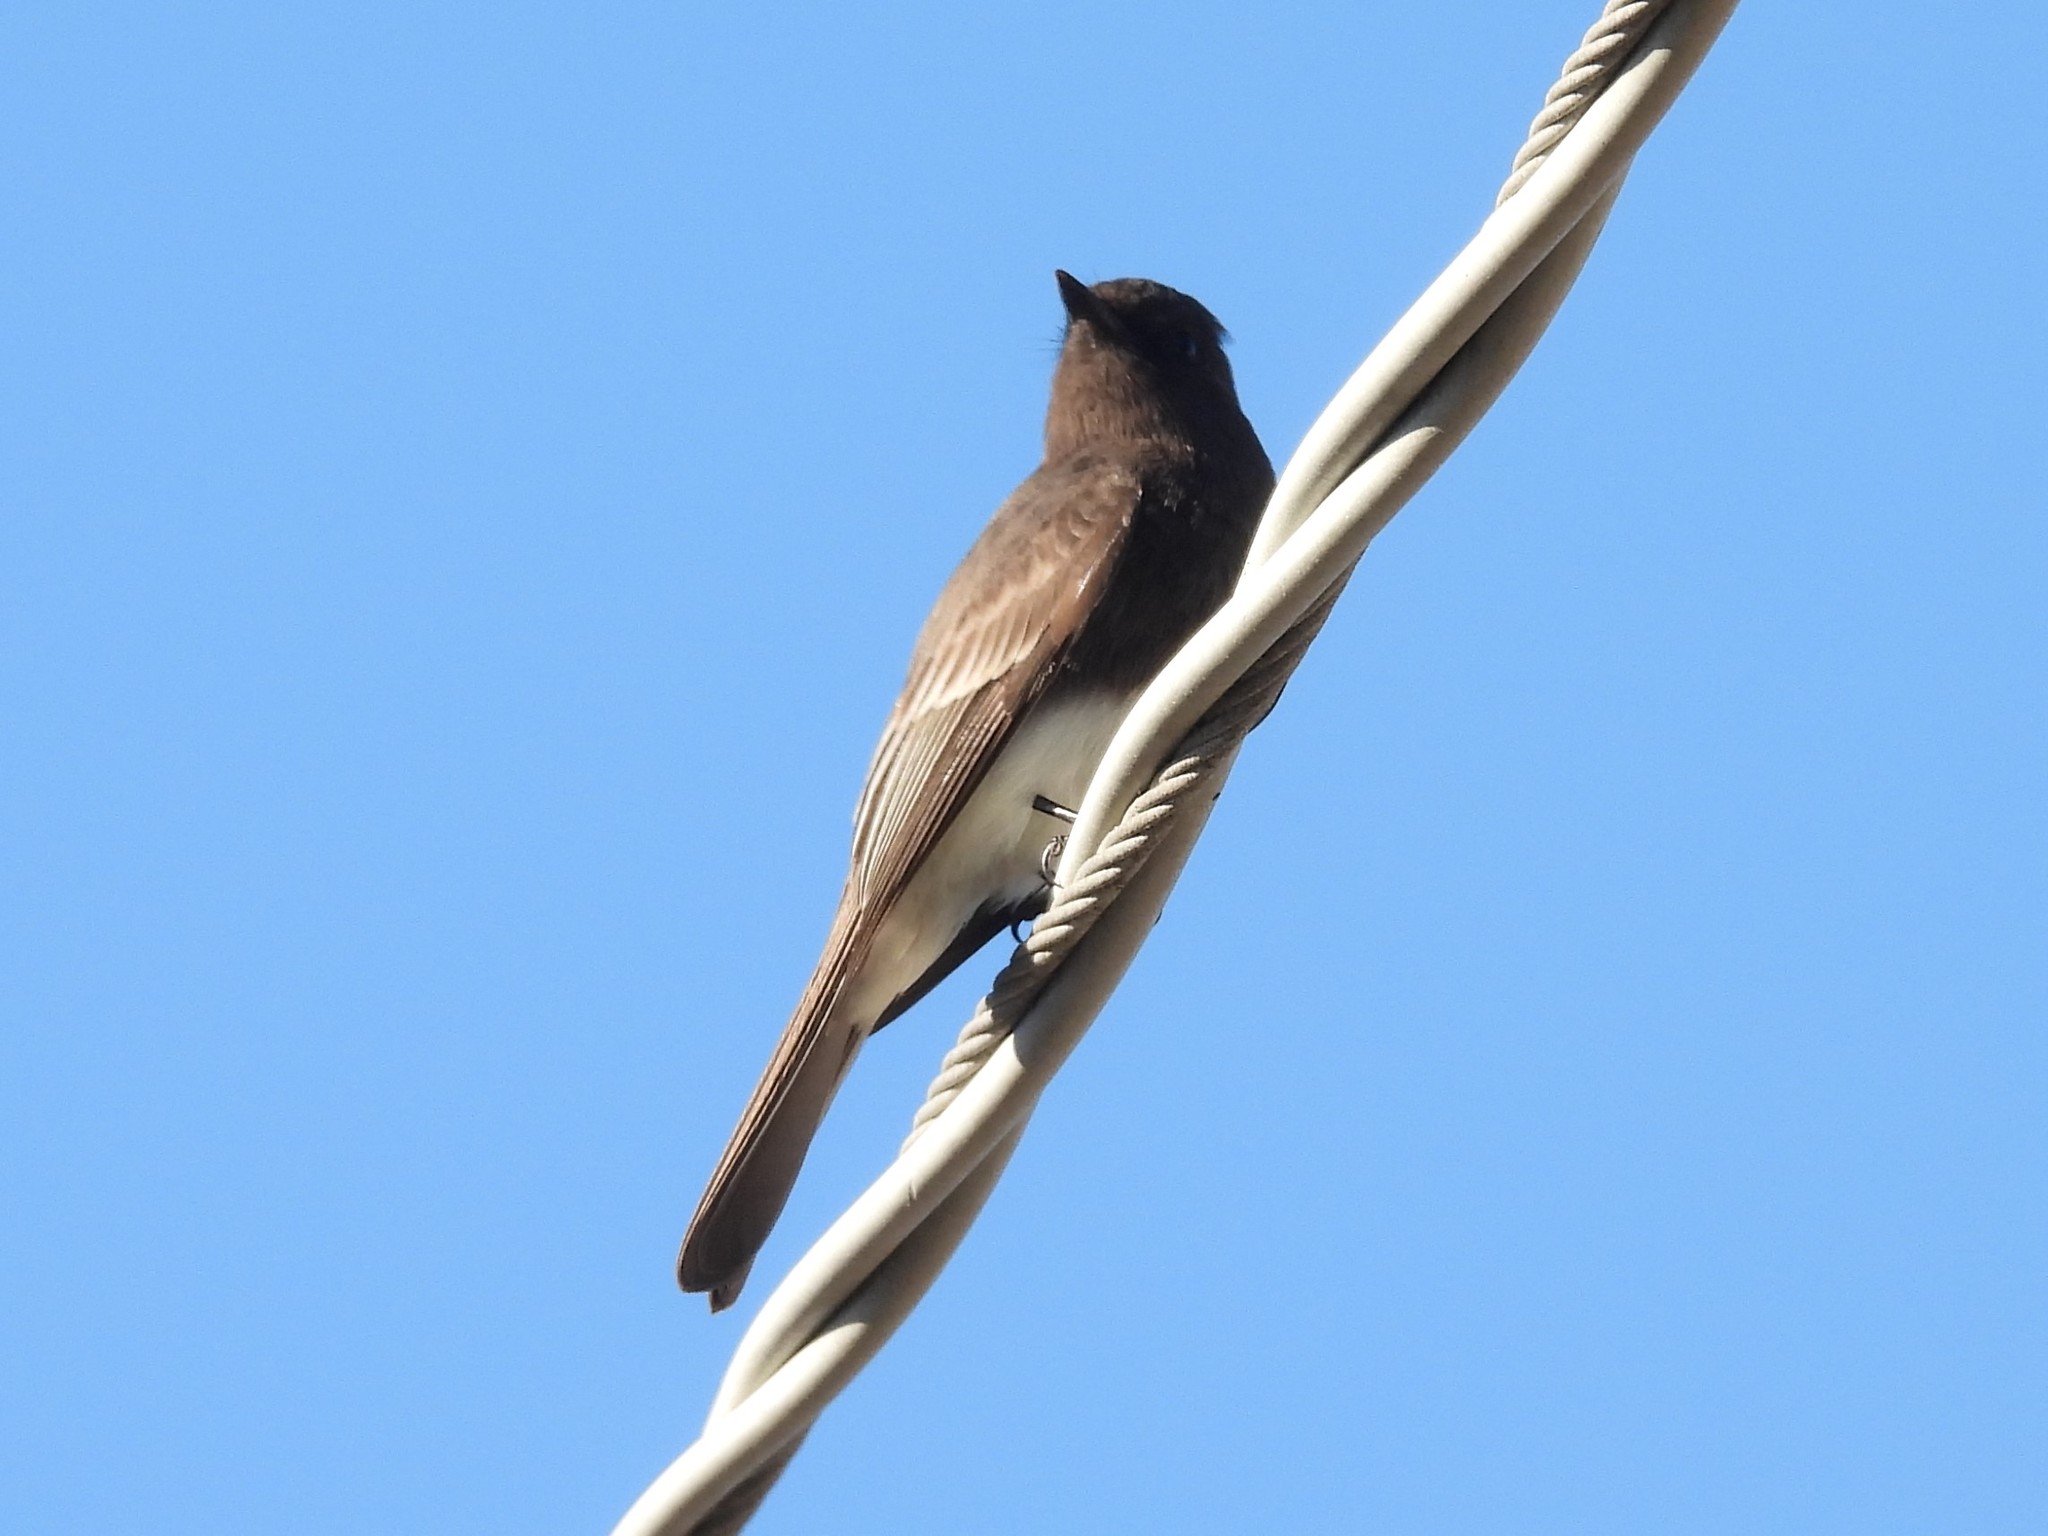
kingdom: Animalia
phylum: Chordata
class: Aves
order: Passeriformes
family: Tyrannidae
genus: Sayornis
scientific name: Sayornis nigricans
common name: Black phoebe
